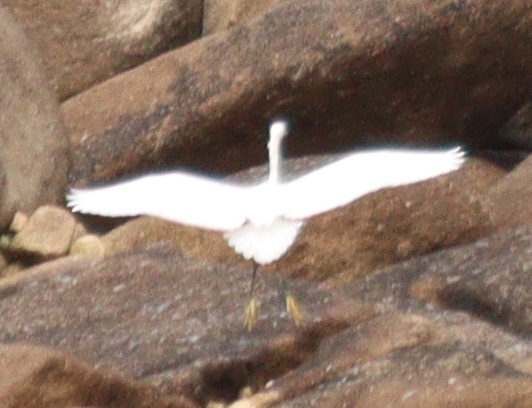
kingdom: Animalia
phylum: Chordata
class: Aves
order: Pelecaniformes
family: Ardeidae
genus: Egretta
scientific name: Egretta garzetta
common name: Little egret
